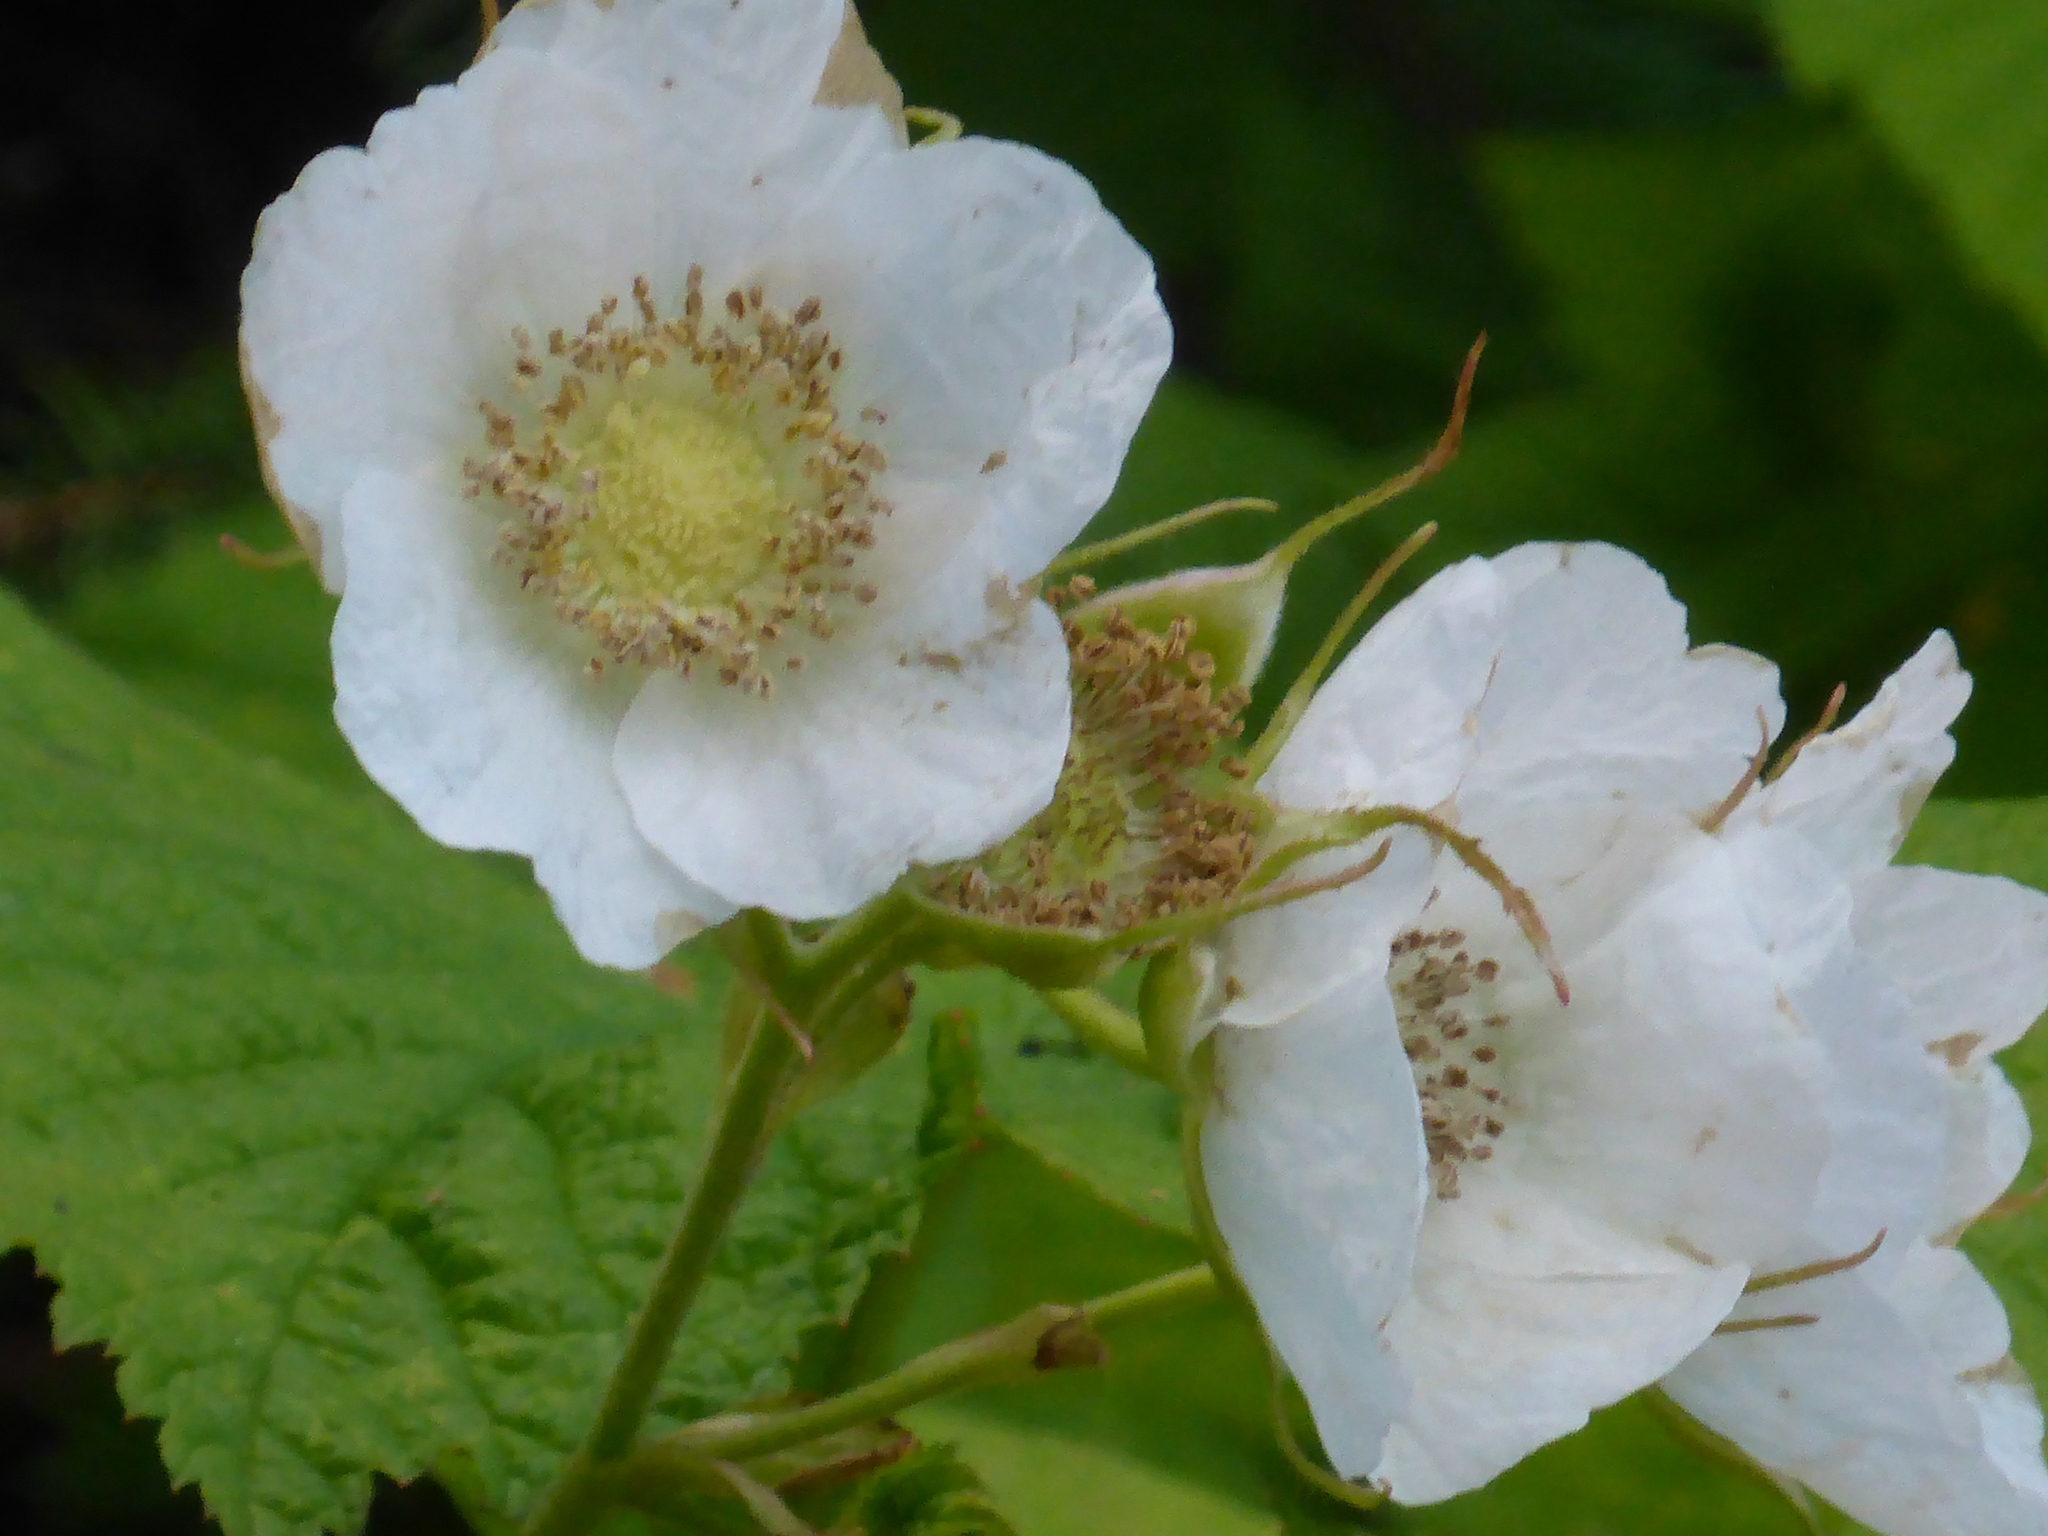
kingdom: Plantae
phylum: Tracheophyta
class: Magnoliopsida
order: Rosales
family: Rosaceae
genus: Rubus
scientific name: Rubus parviflorus
